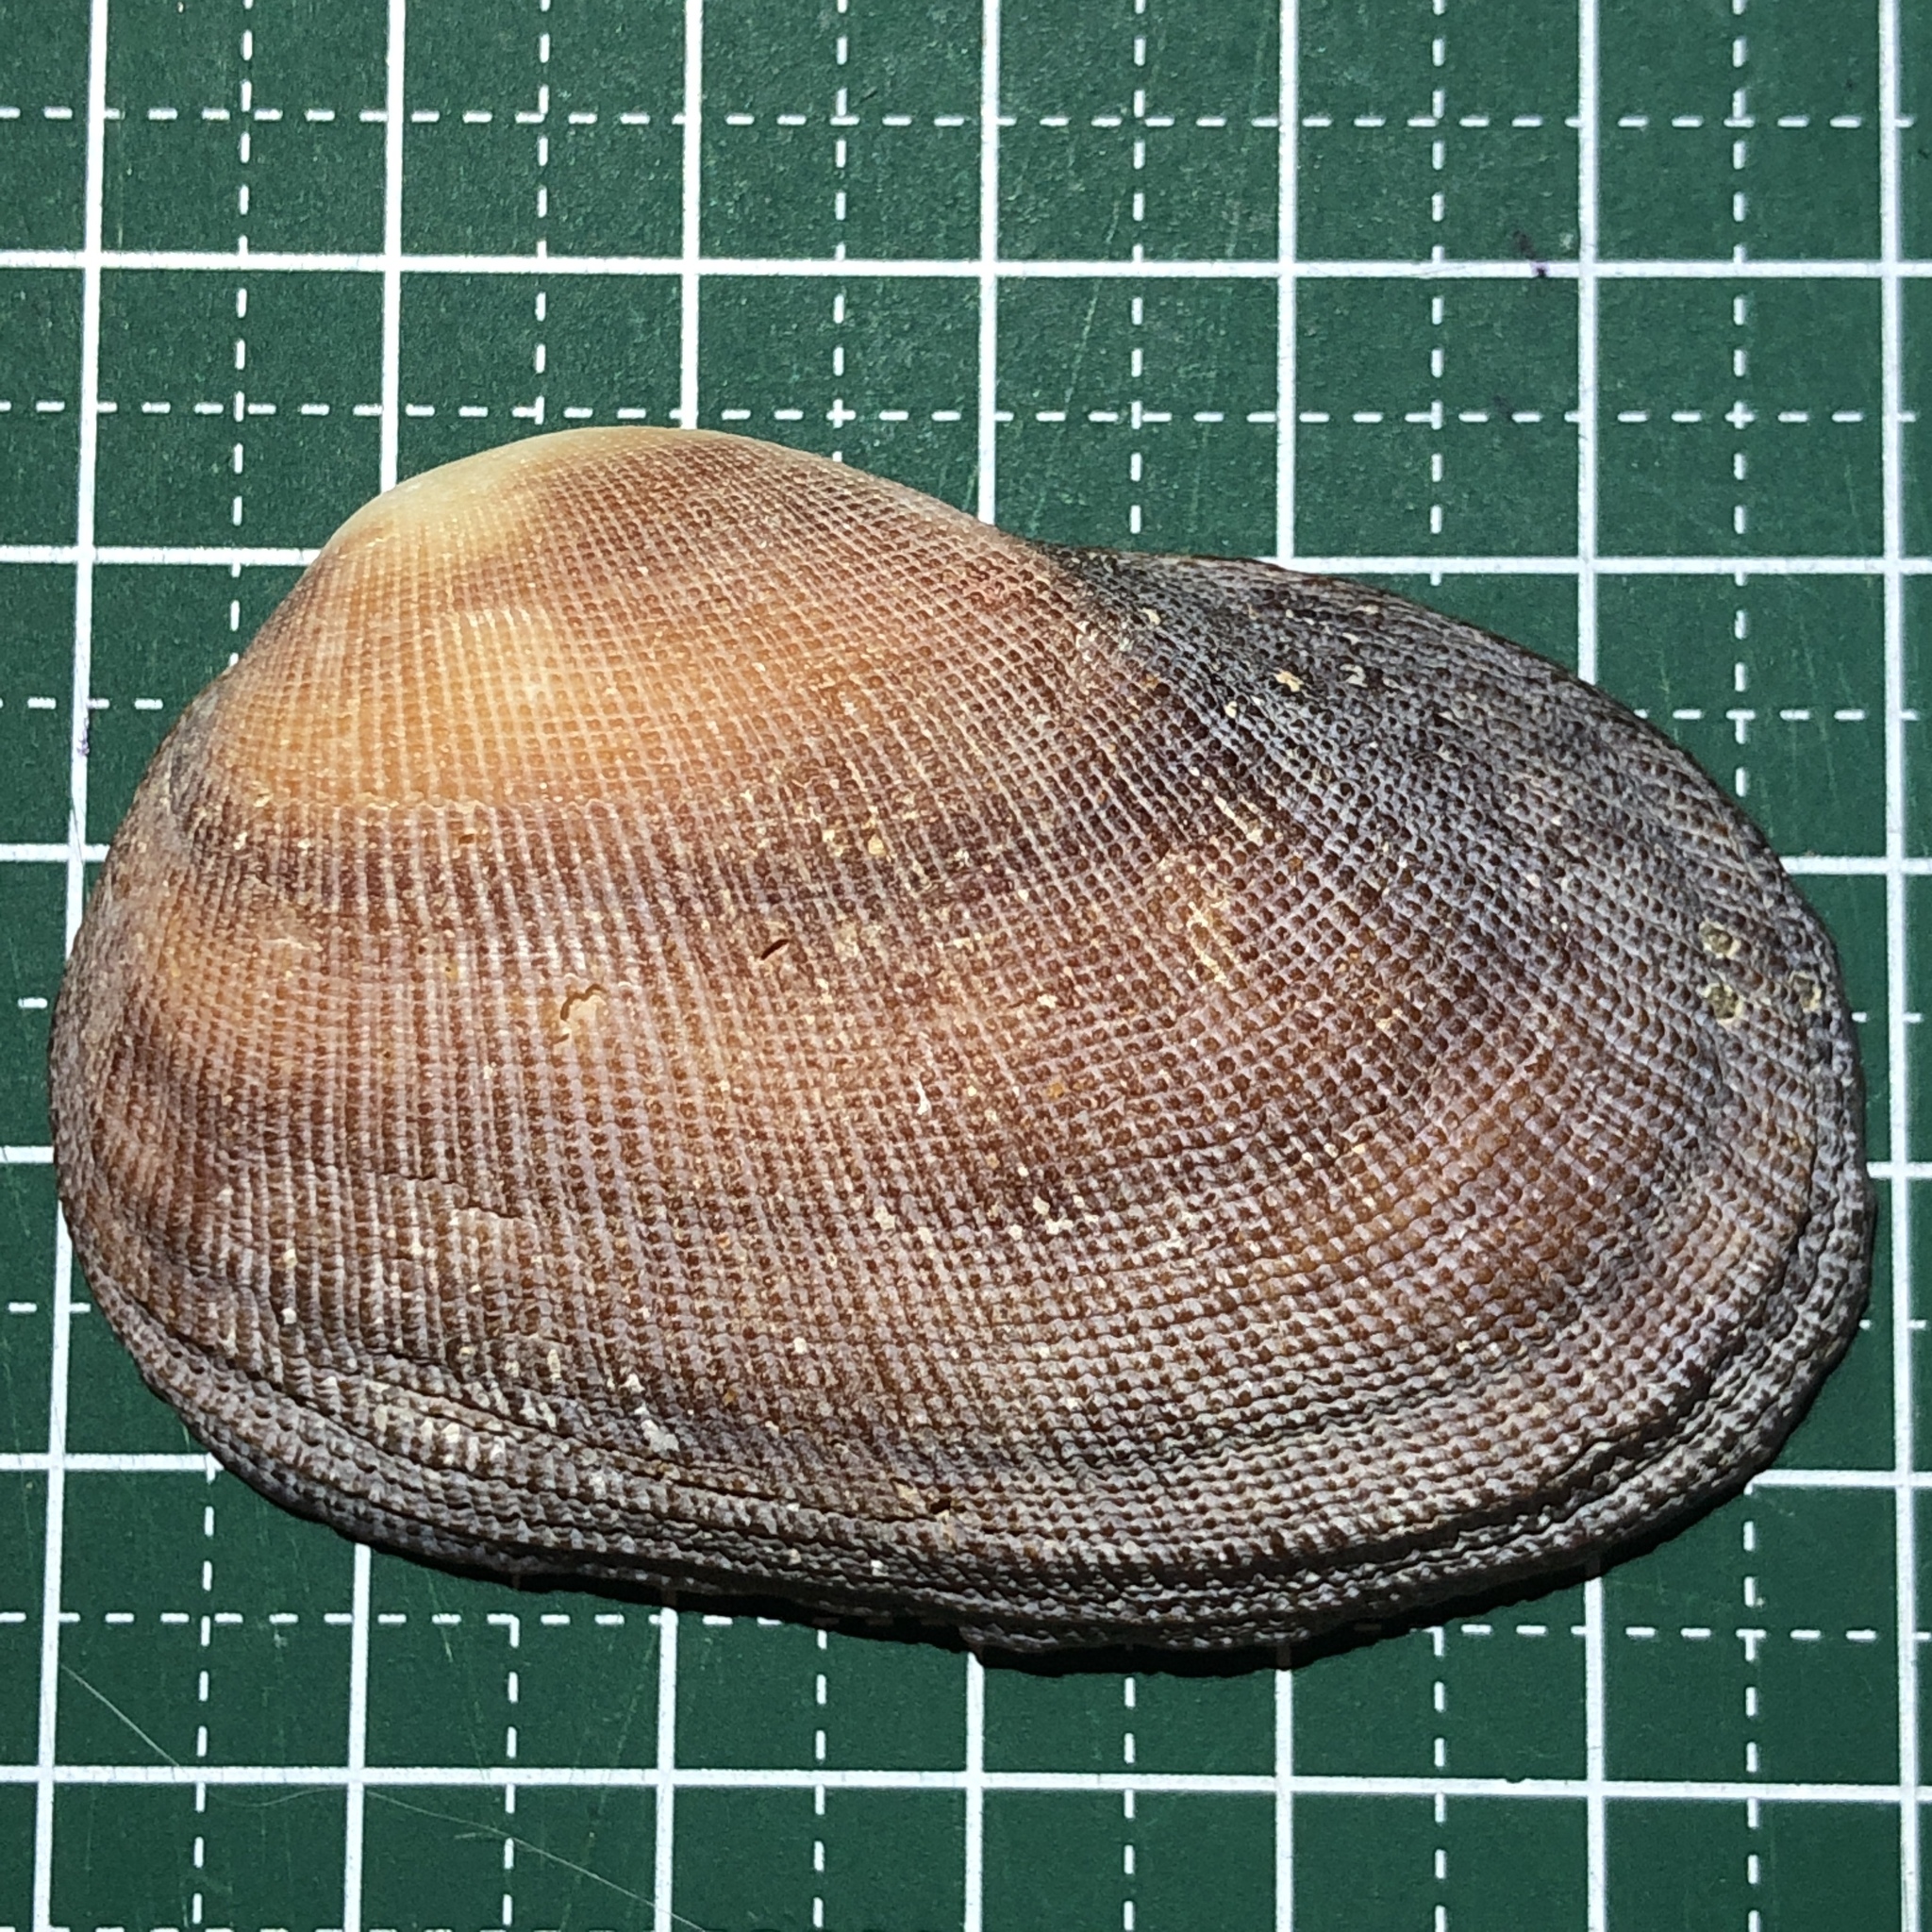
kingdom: Animalia
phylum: Mollusca
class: Bivalvia
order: Arcida
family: Arcidae
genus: Barbatia
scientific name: Barbatia amygdalumtostum
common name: Burnt-almond ark
